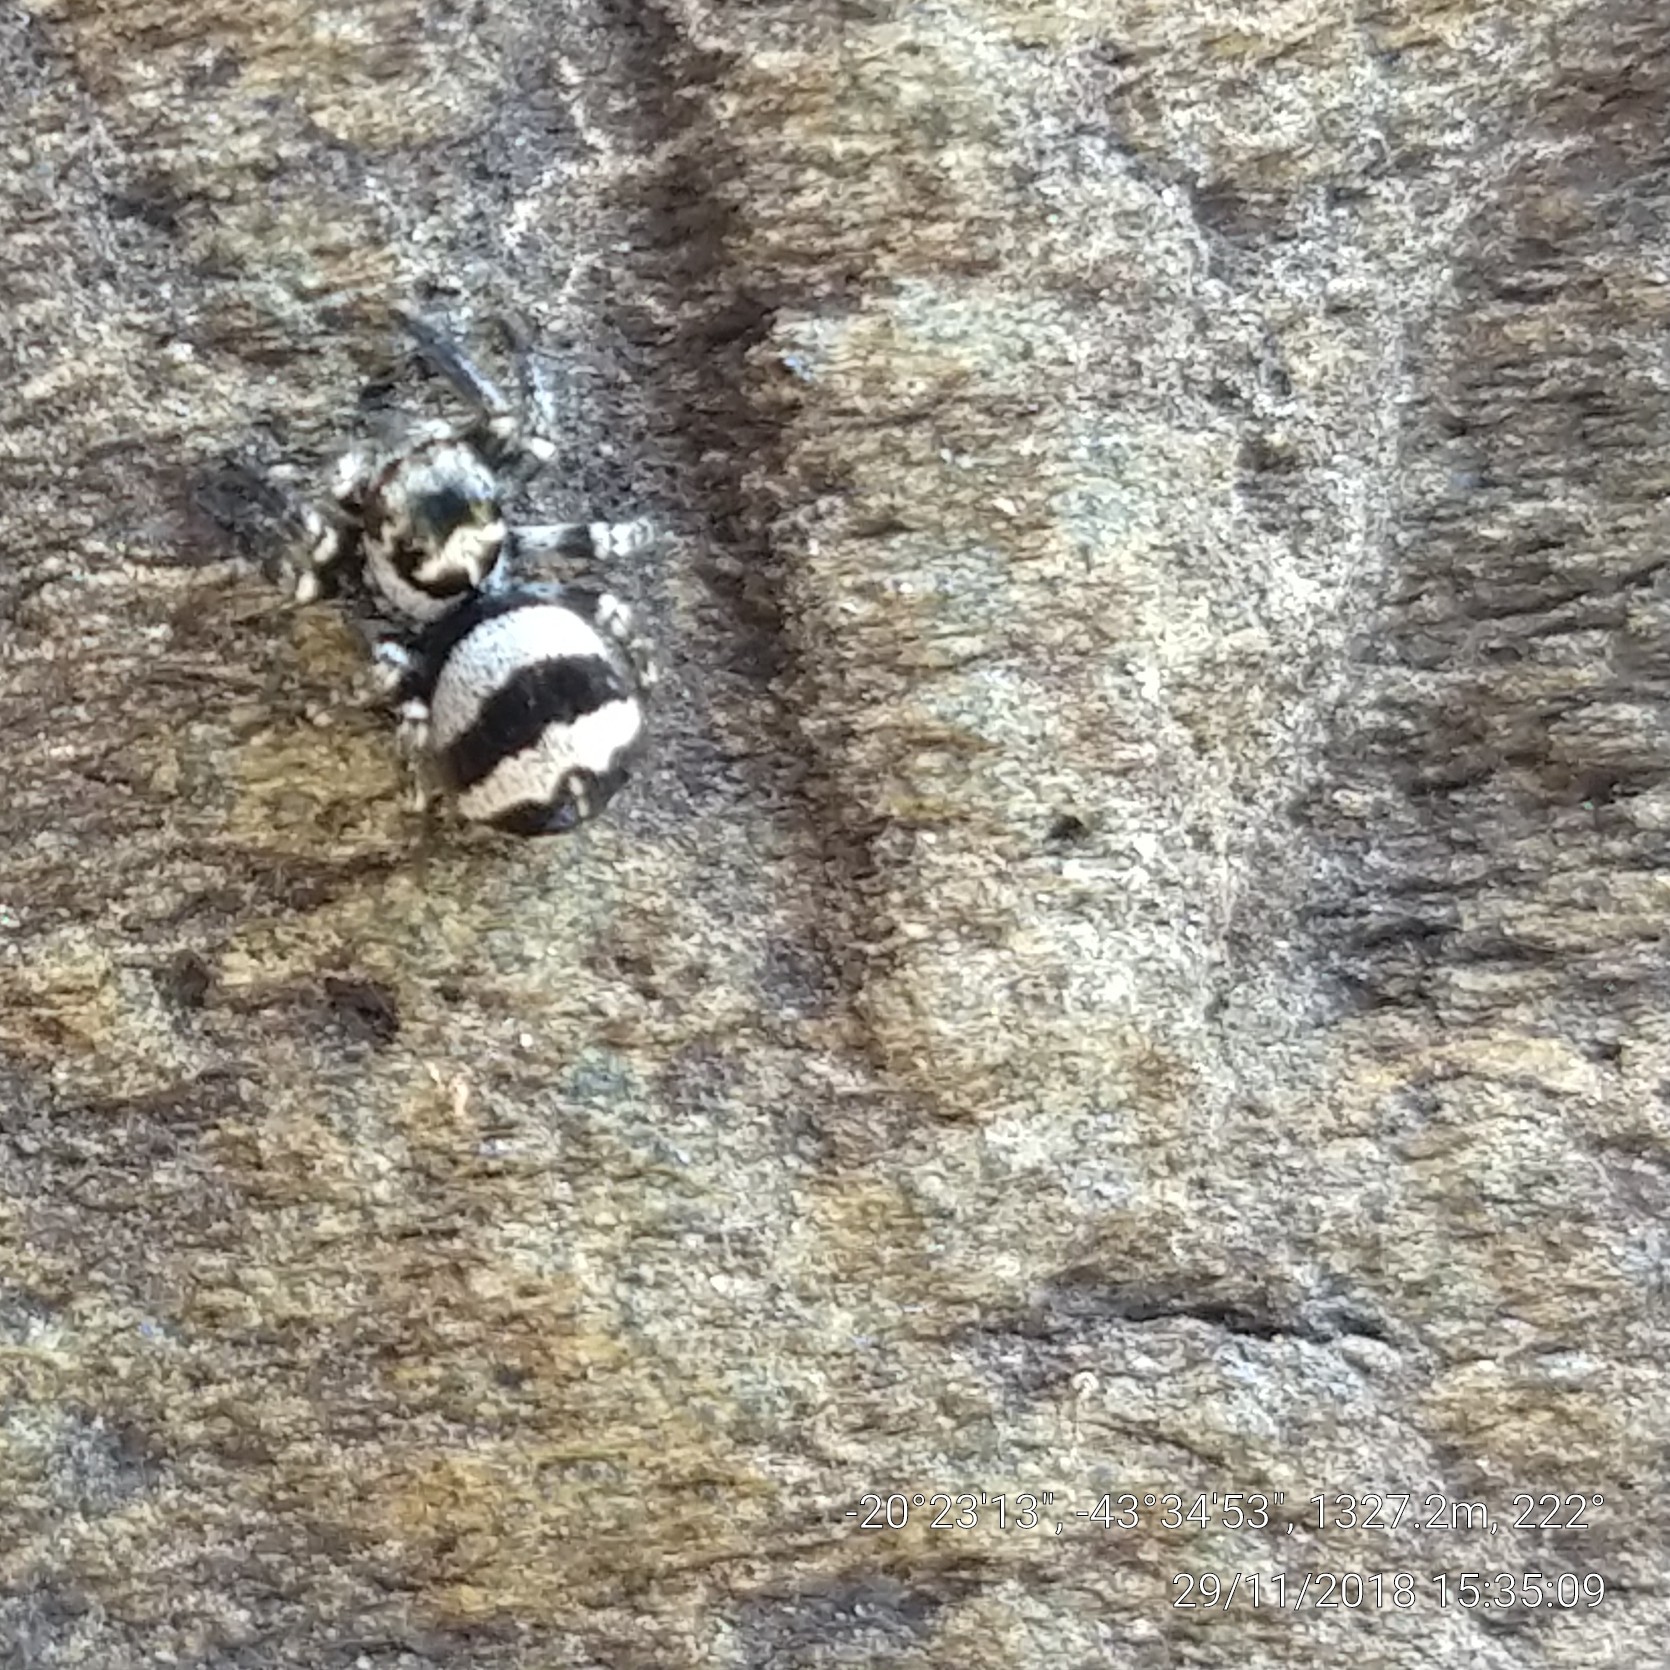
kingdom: Animalia
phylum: Arthropoda
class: Arachnida
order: Araneae
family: Salticidae
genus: Corythalia
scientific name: Corythalia argentinensis
